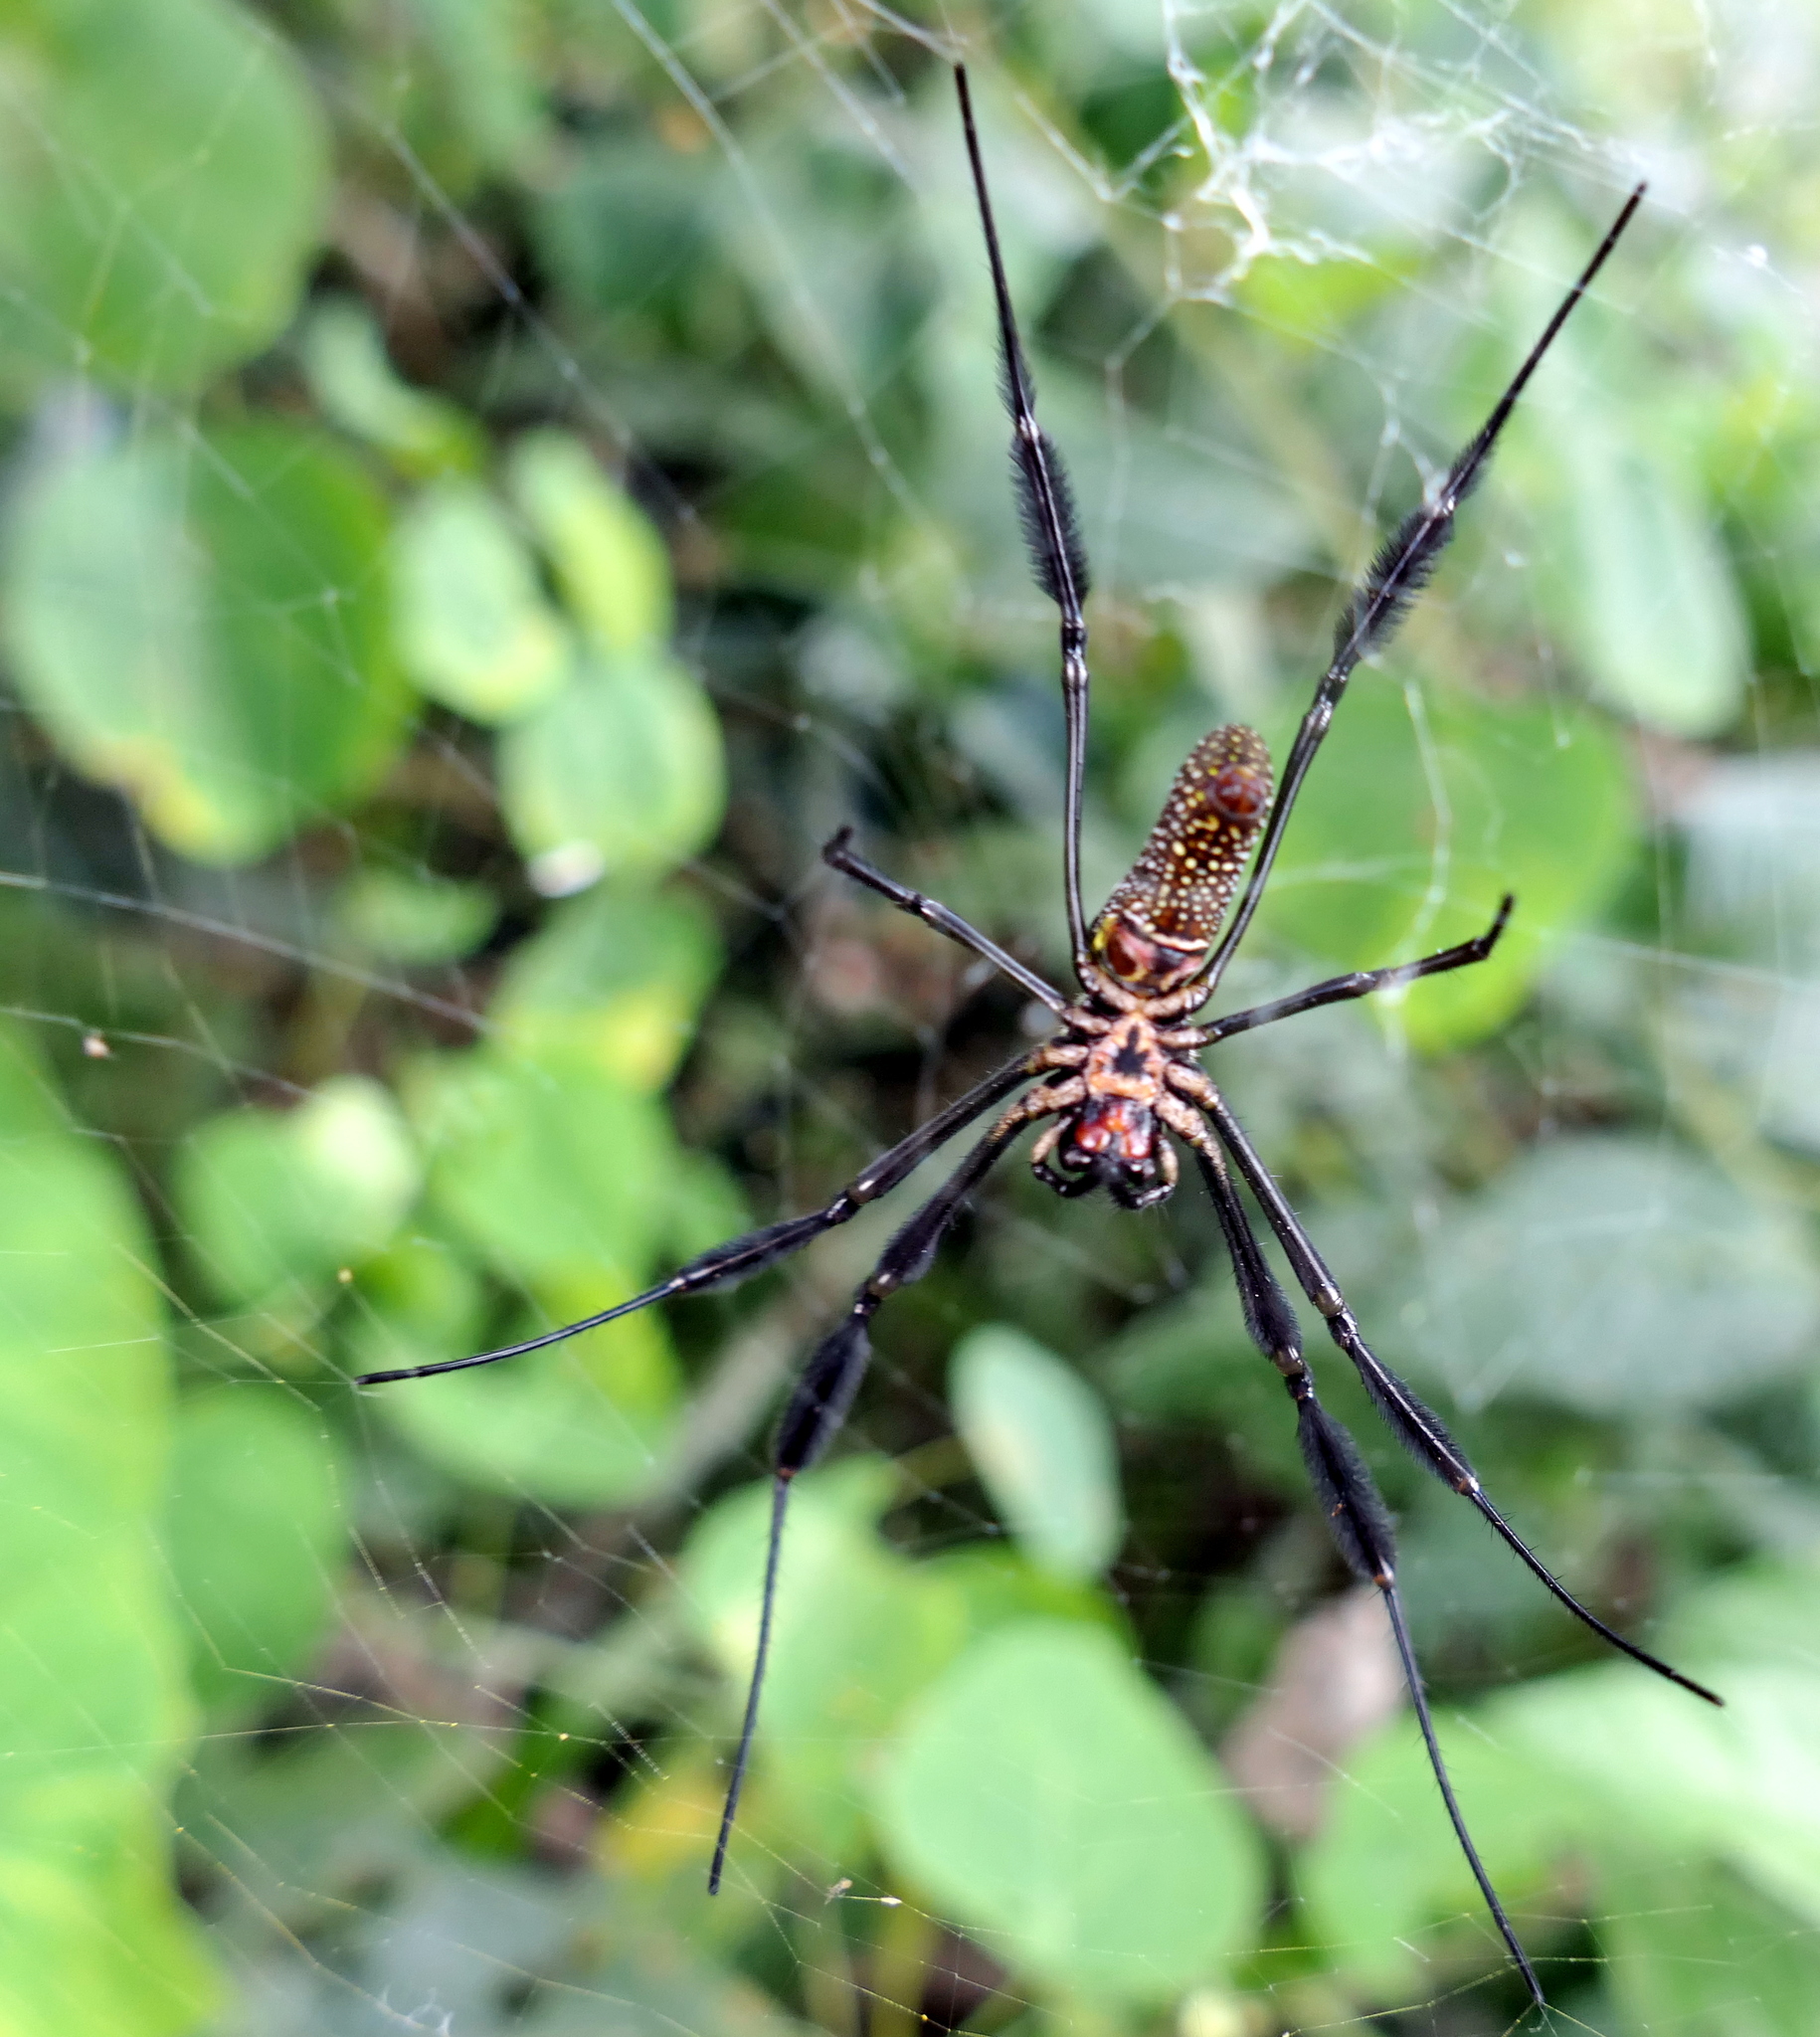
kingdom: Animalia
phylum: Arthropoda
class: Arachnida
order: Araneae
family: Araneidae
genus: Trichonephila
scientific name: Trichonephila clavipes
